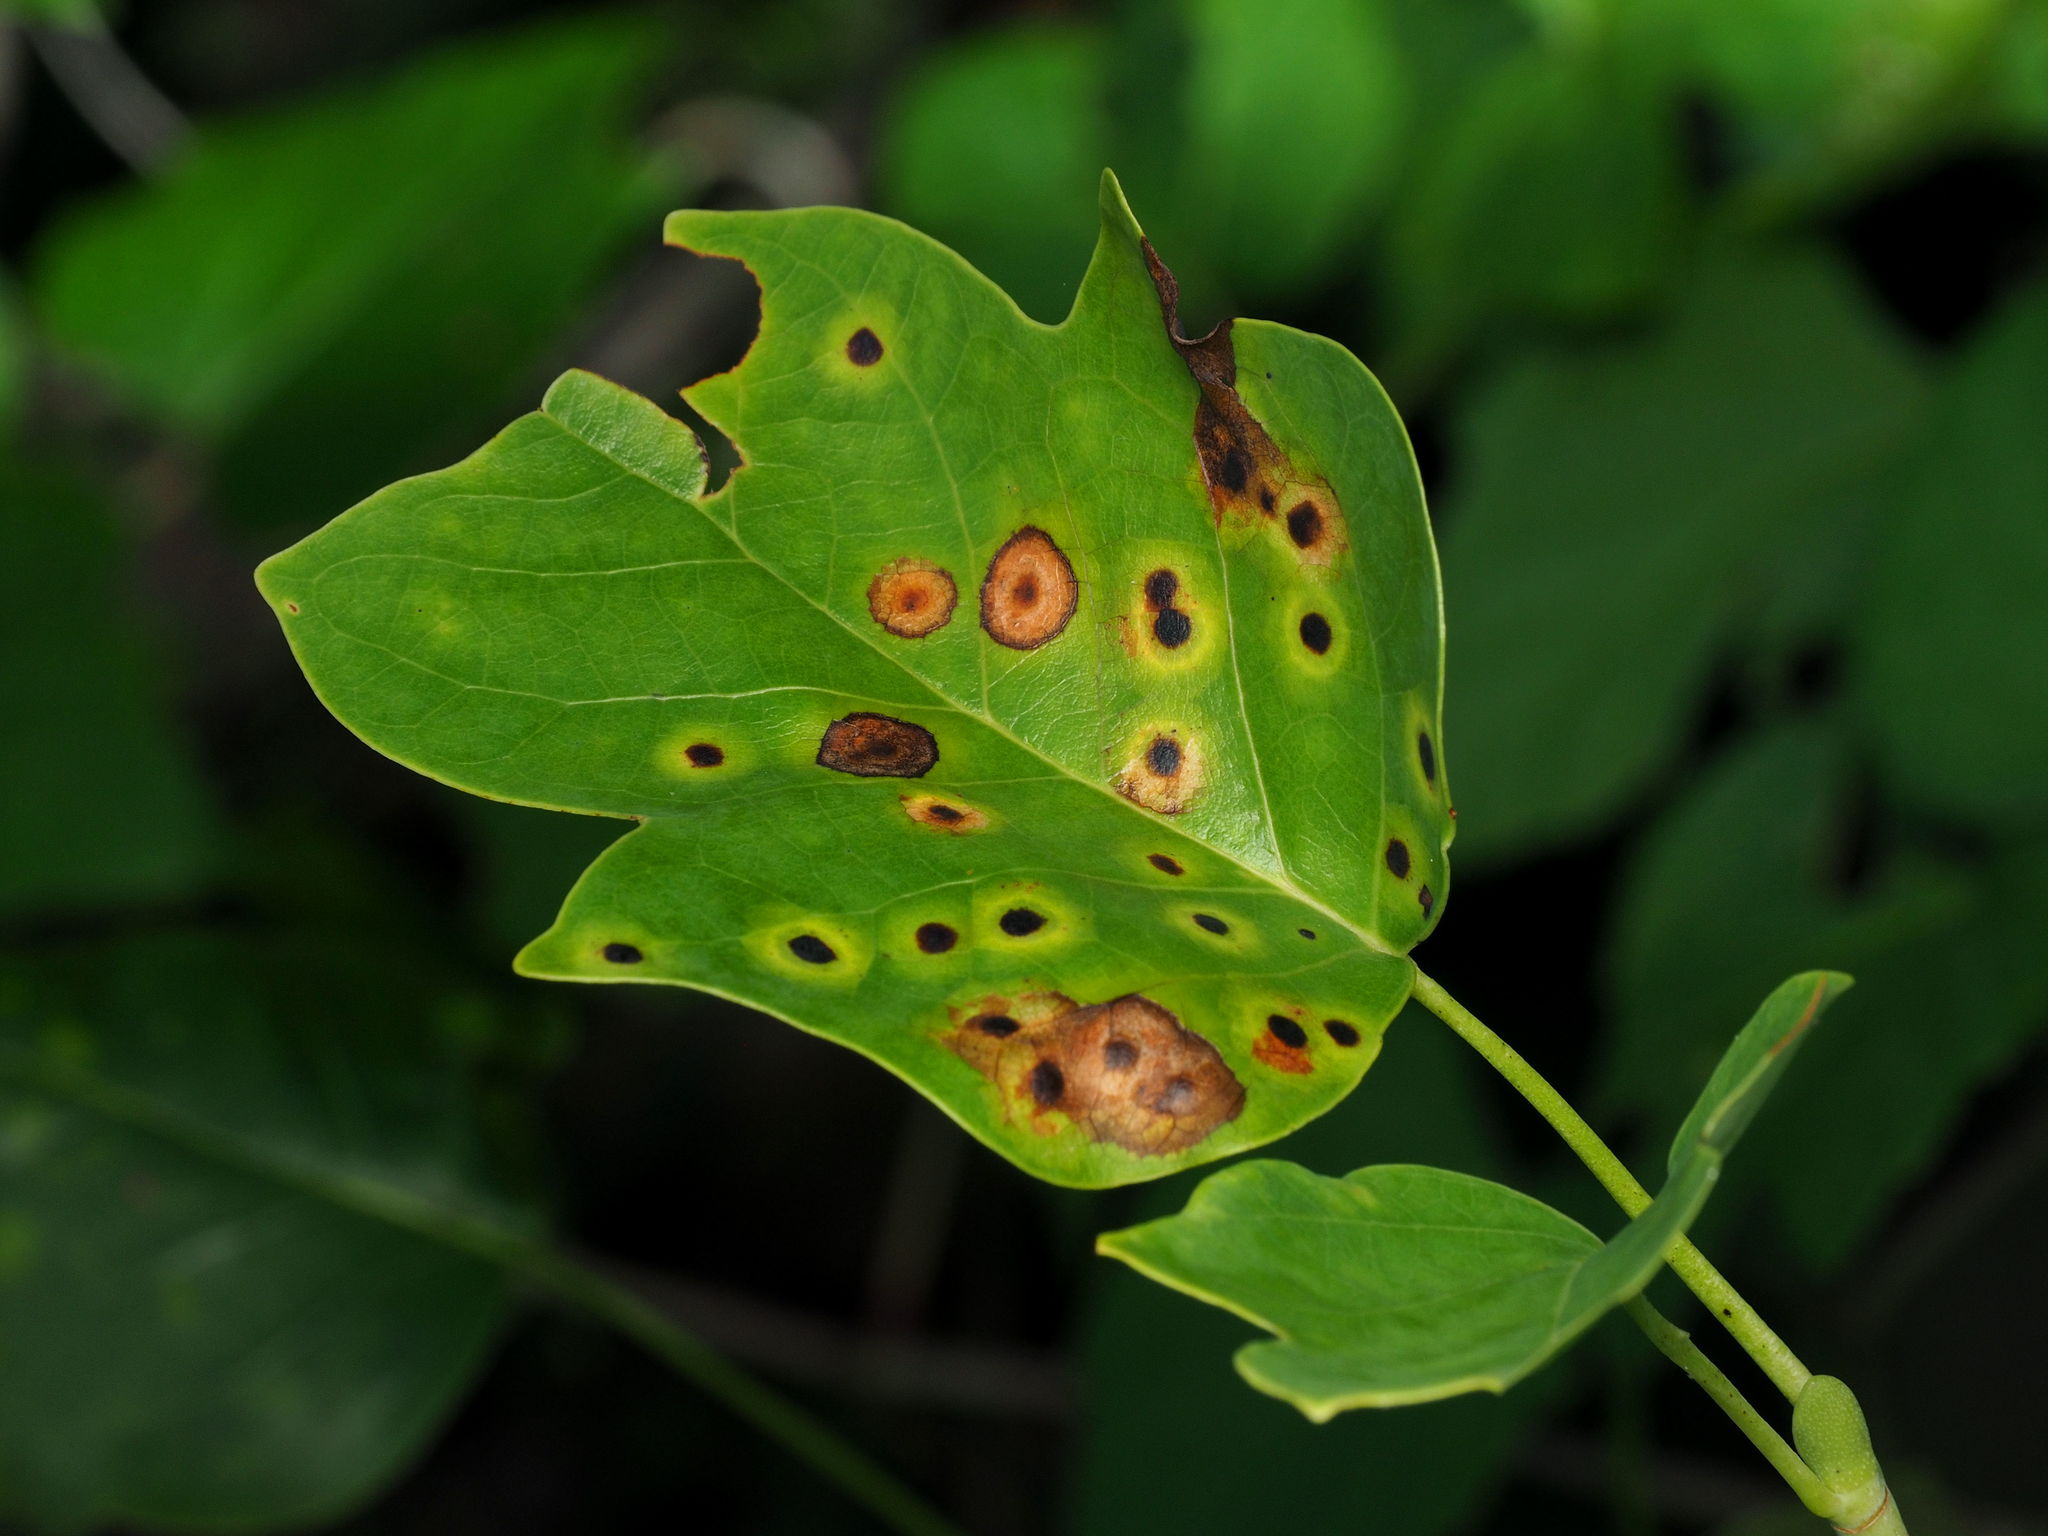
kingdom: Plantae
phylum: Tracheophyta
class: Magnoliopsida
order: Magnoliales
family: Magnoliaceae
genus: Liriodendron
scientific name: Liriodendron tulipifera
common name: Tulip tree
